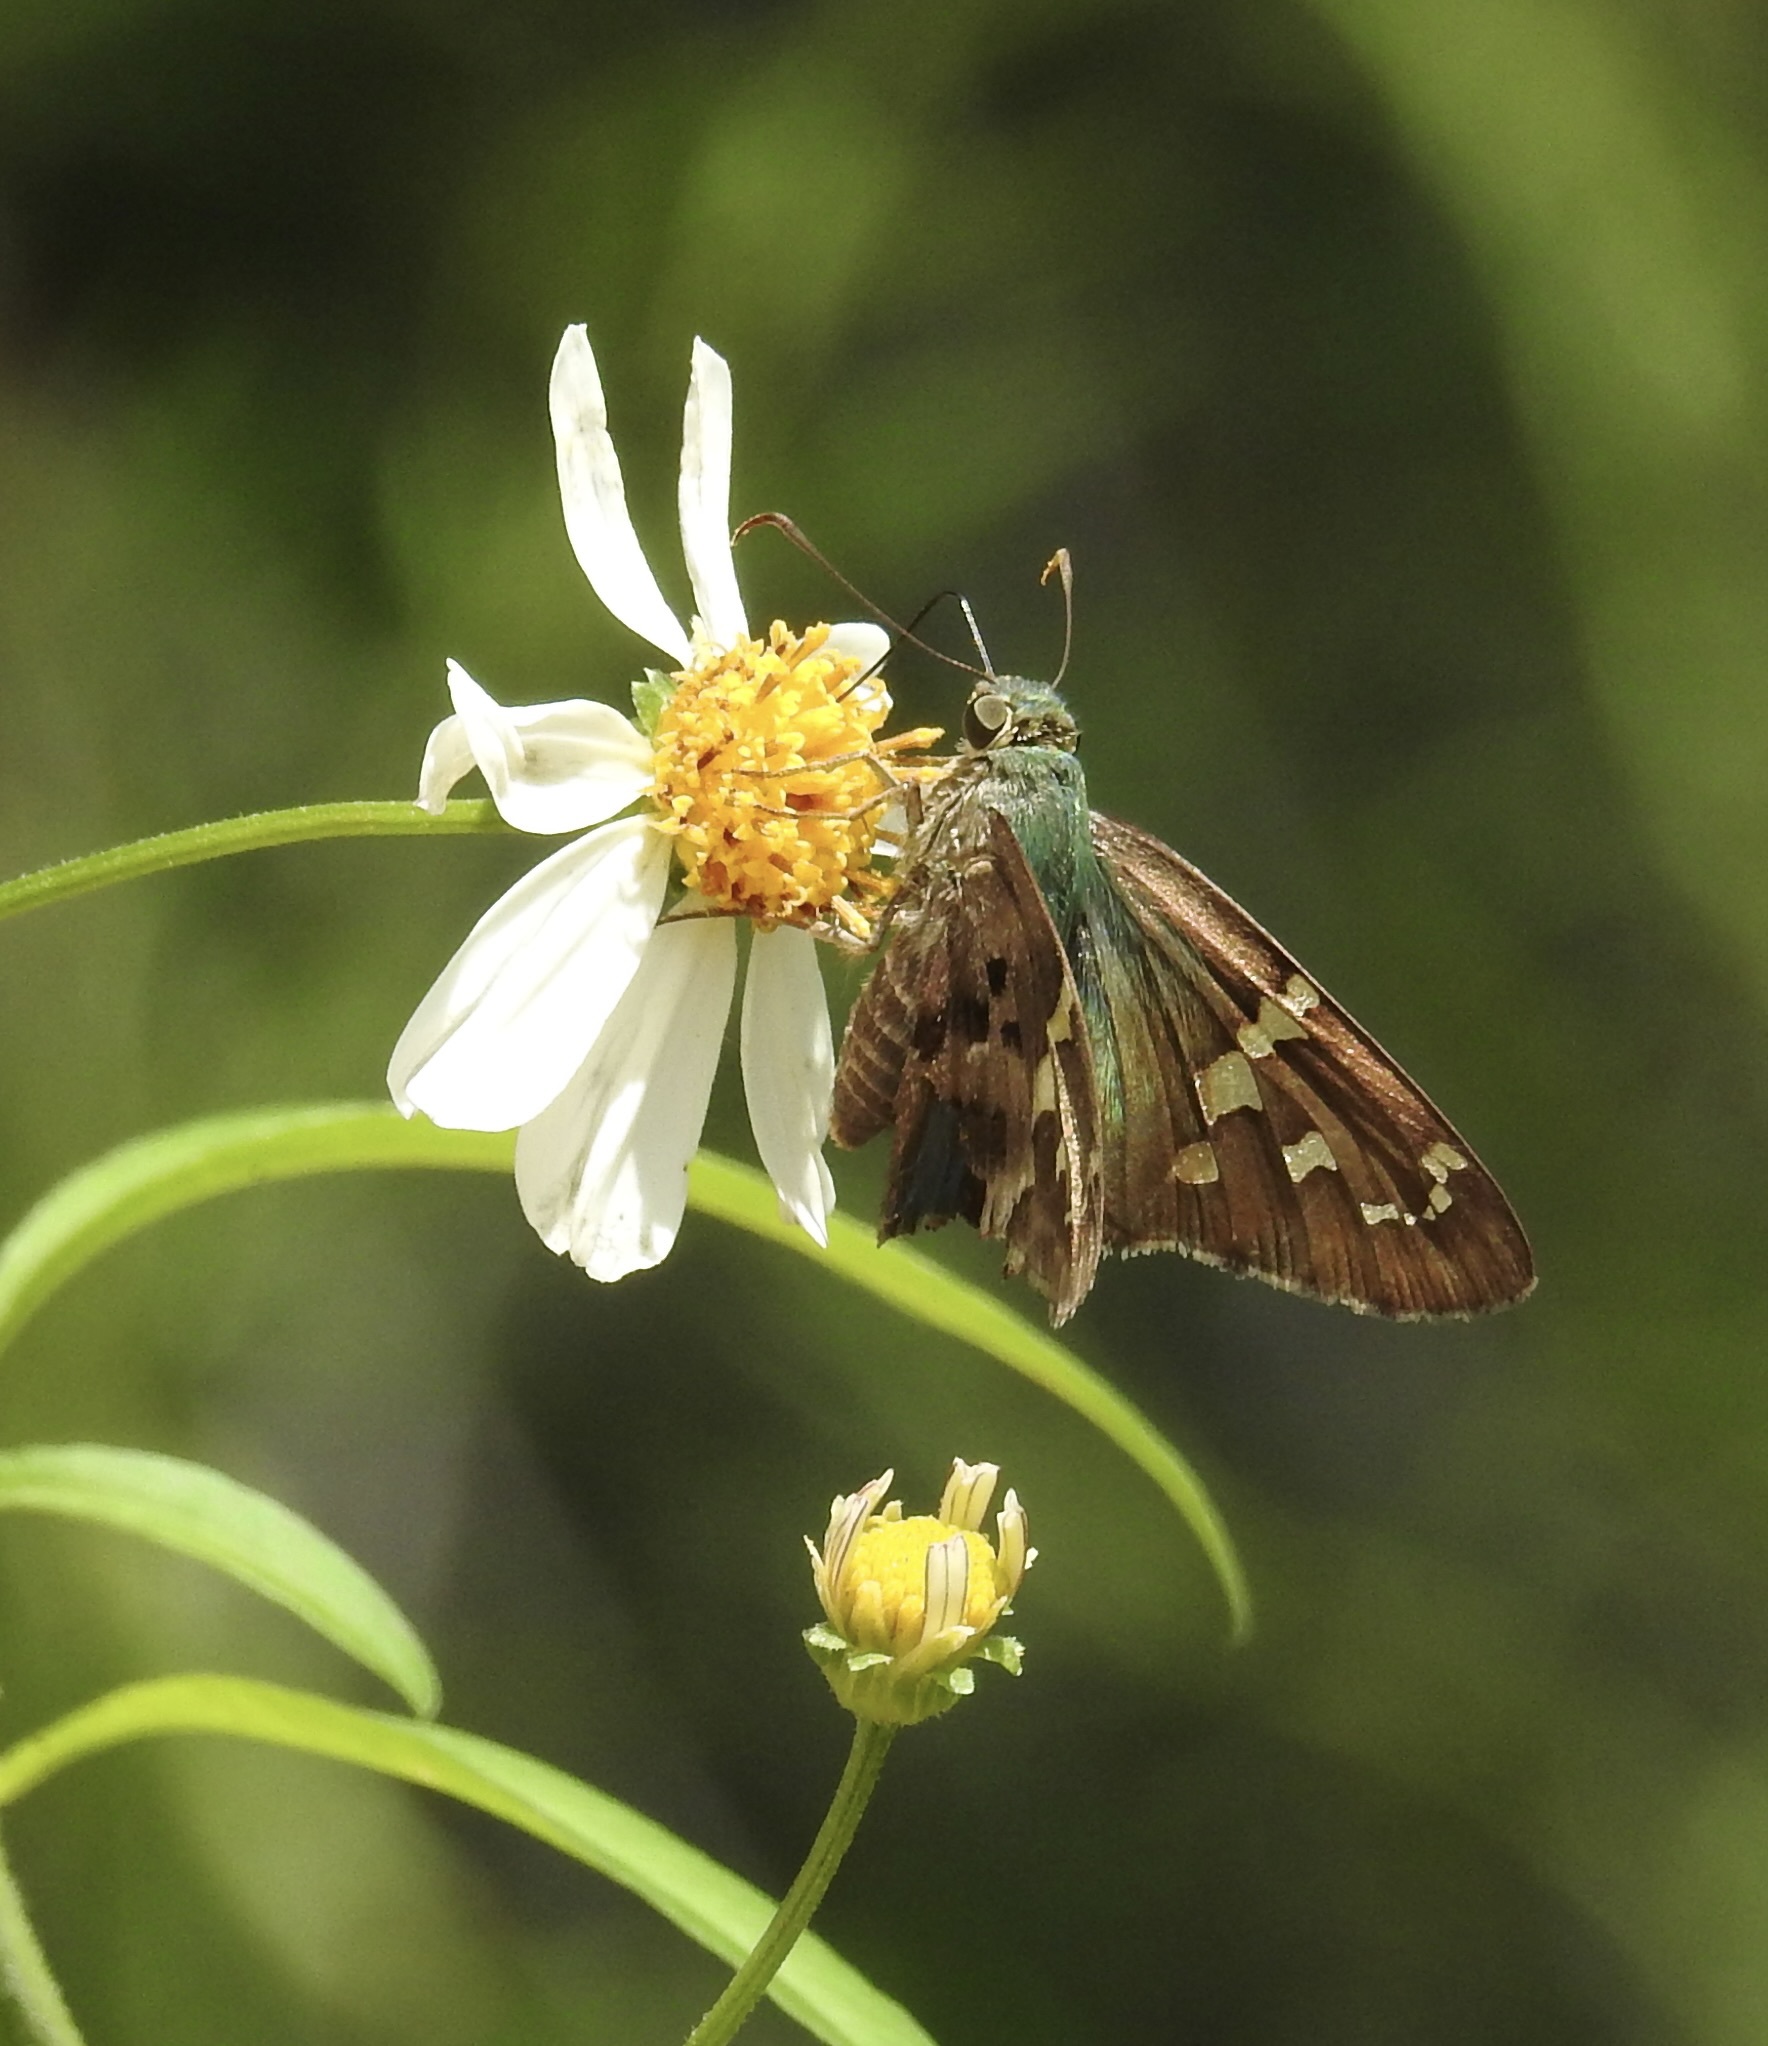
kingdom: Animalia
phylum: Arthropoda
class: Insecta
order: Lepidoptera
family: Hesperiidae
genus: Urbanus
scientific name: Urbanus proteus
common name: Long-tailed skipper
